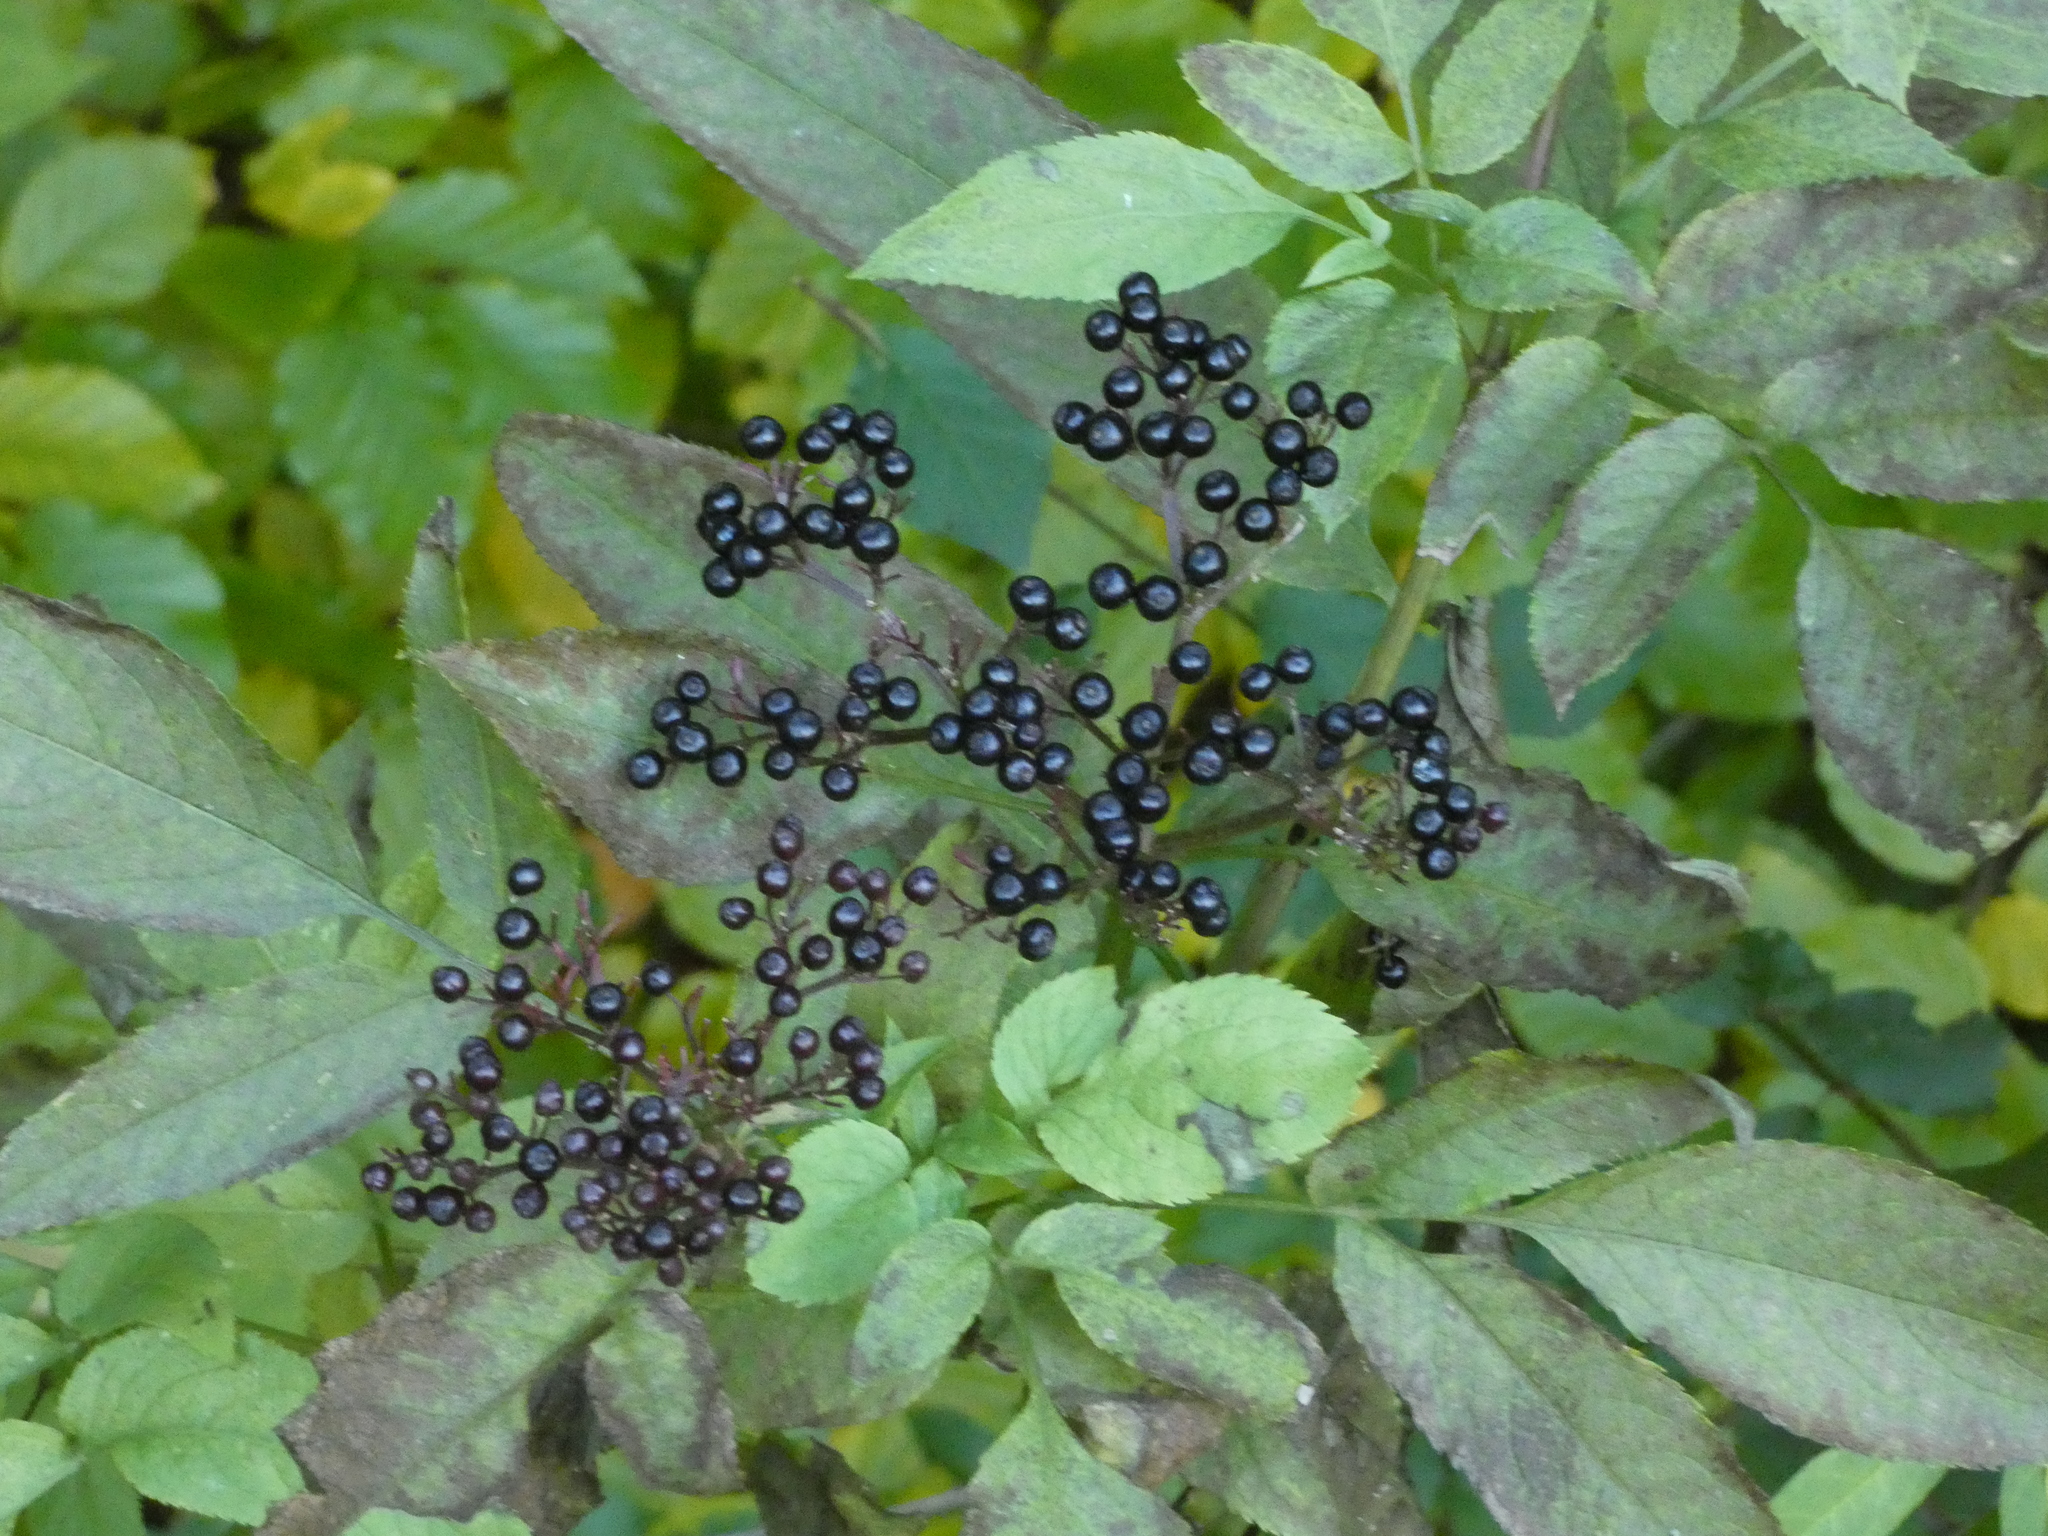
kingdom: Plantae
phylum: Tracheophyta
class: Magnoliopsida
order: Dipsacales
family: Viburnaceae
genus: Sambucus
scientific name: Sambucus nigra
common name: Elder
